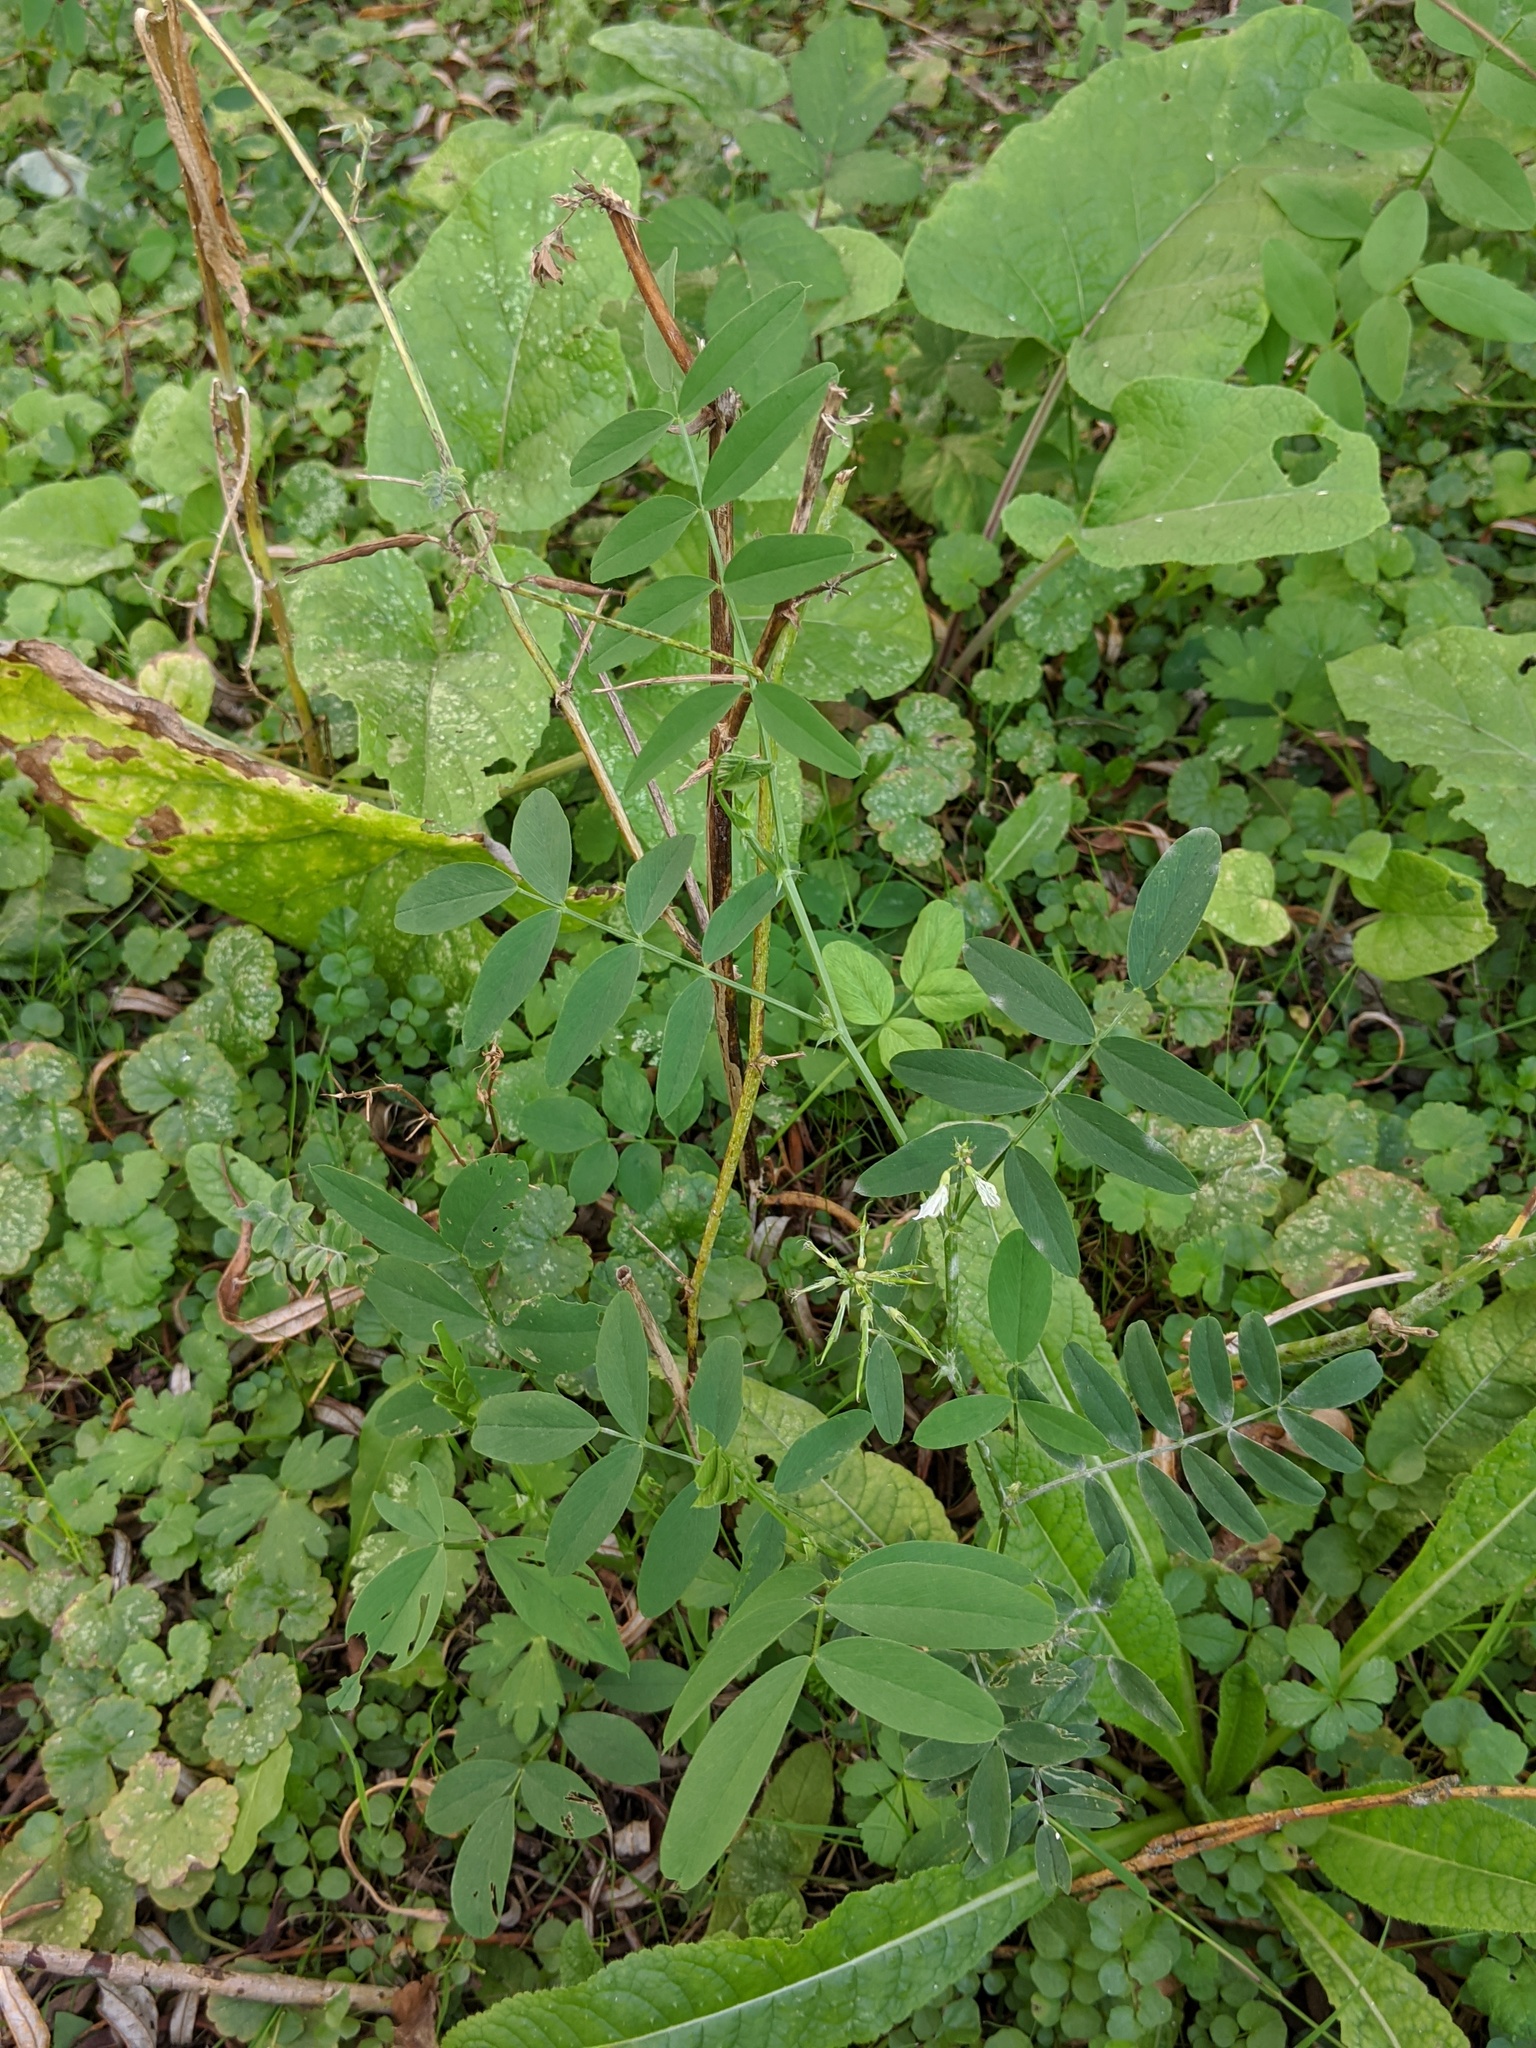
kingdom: Plantae
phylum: Tracheophyta
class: Magnoliopsida
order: Fabales
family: Fabaceae
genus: Galega
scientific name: Galega officinalis
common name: Goat's-rue
